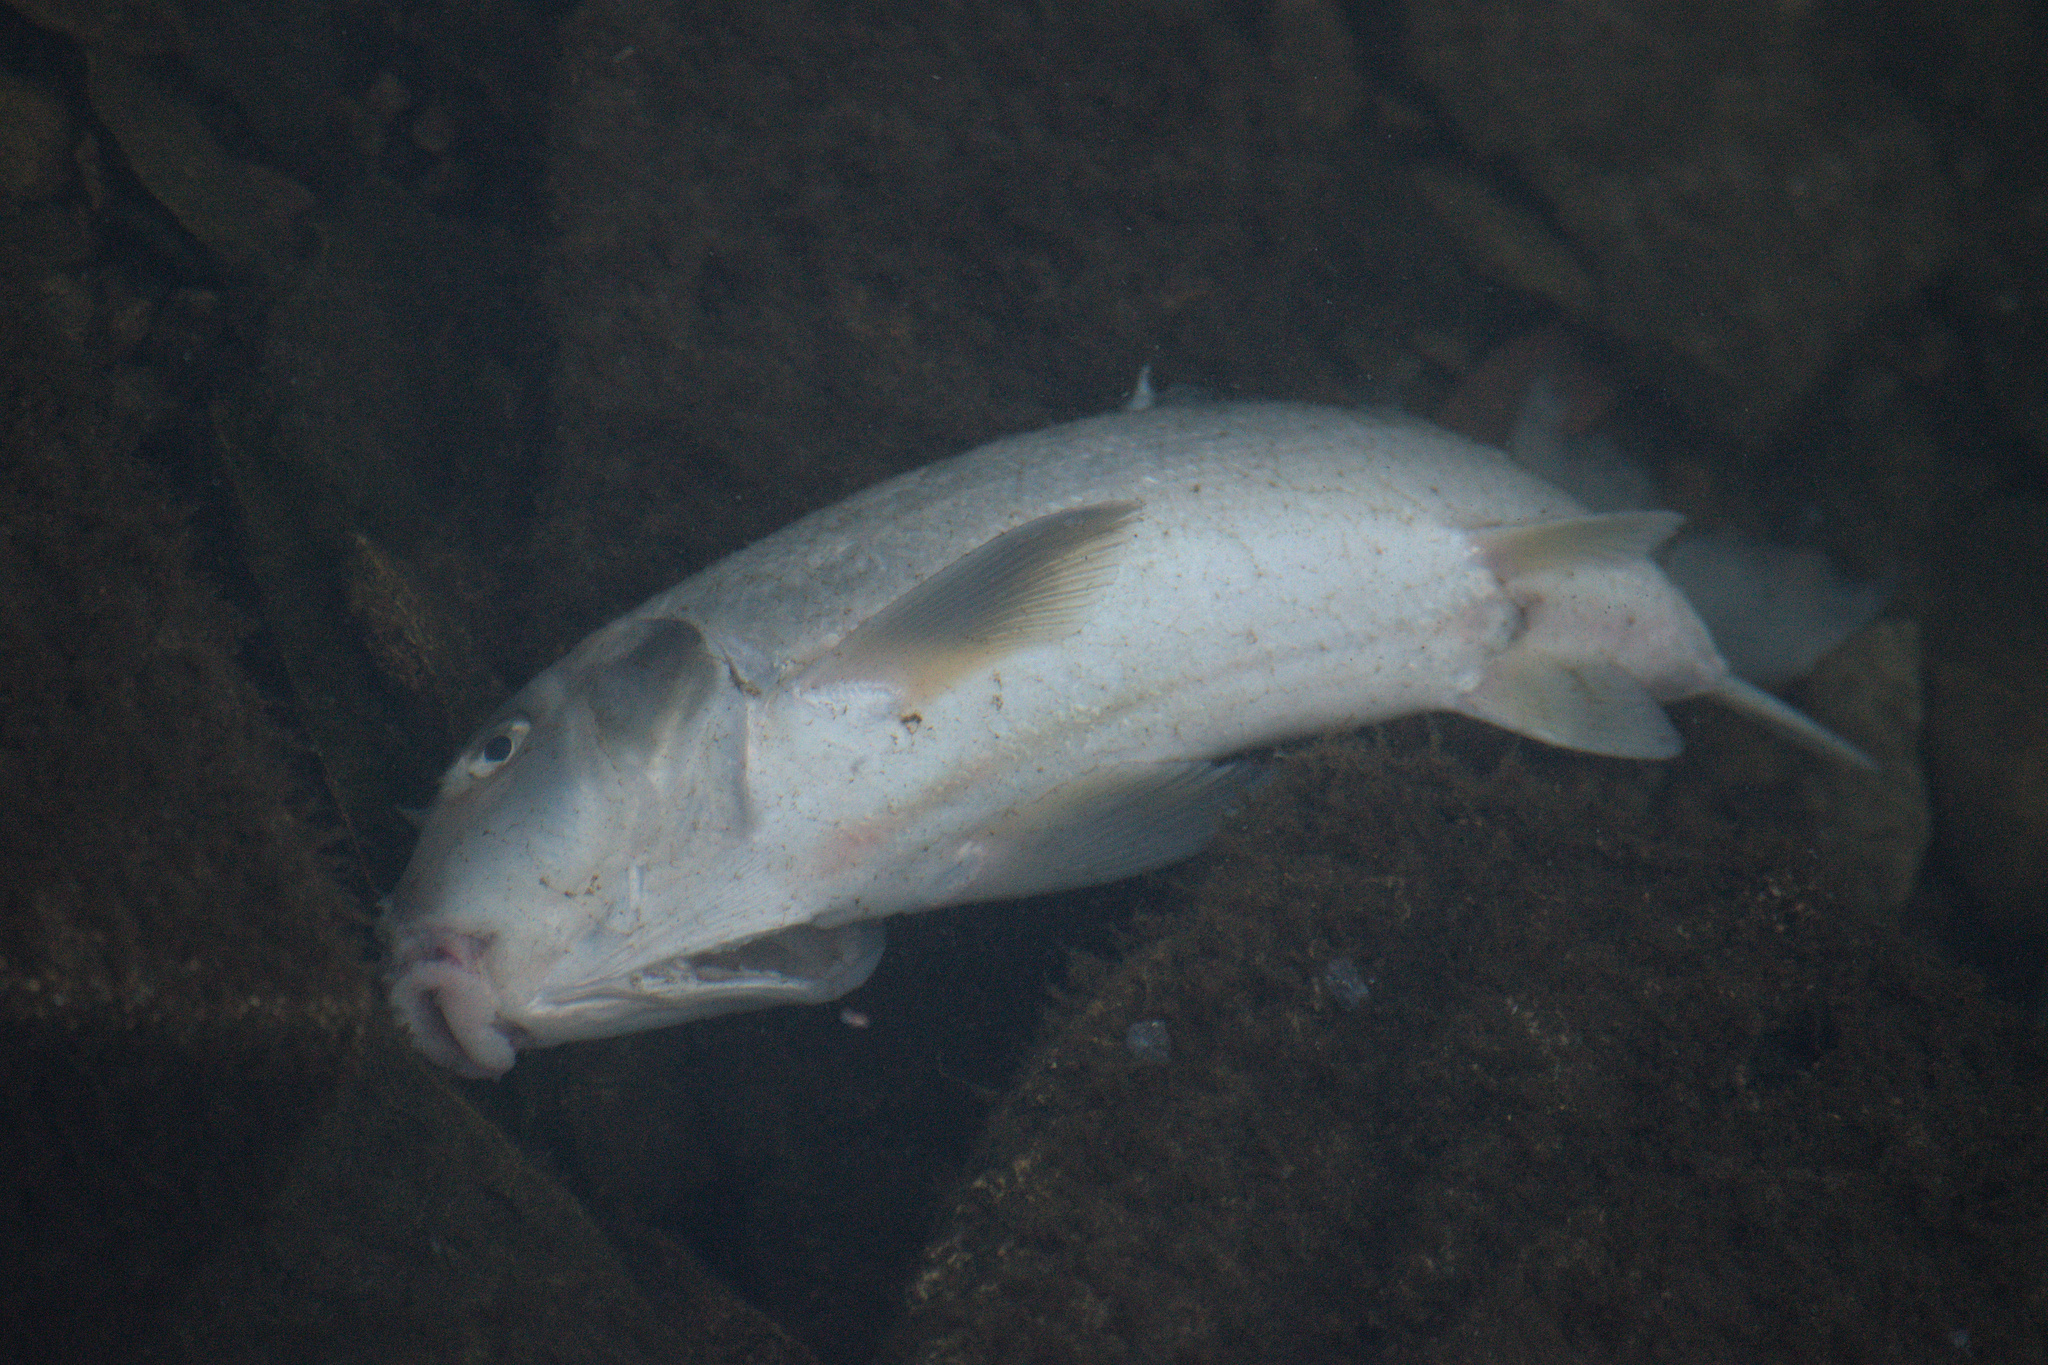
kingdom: Animalia
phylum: Chordata
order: Cypriniformes
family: Catostomidae
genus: Catostomus
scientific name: Catostomus commersonii
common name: White sucker
